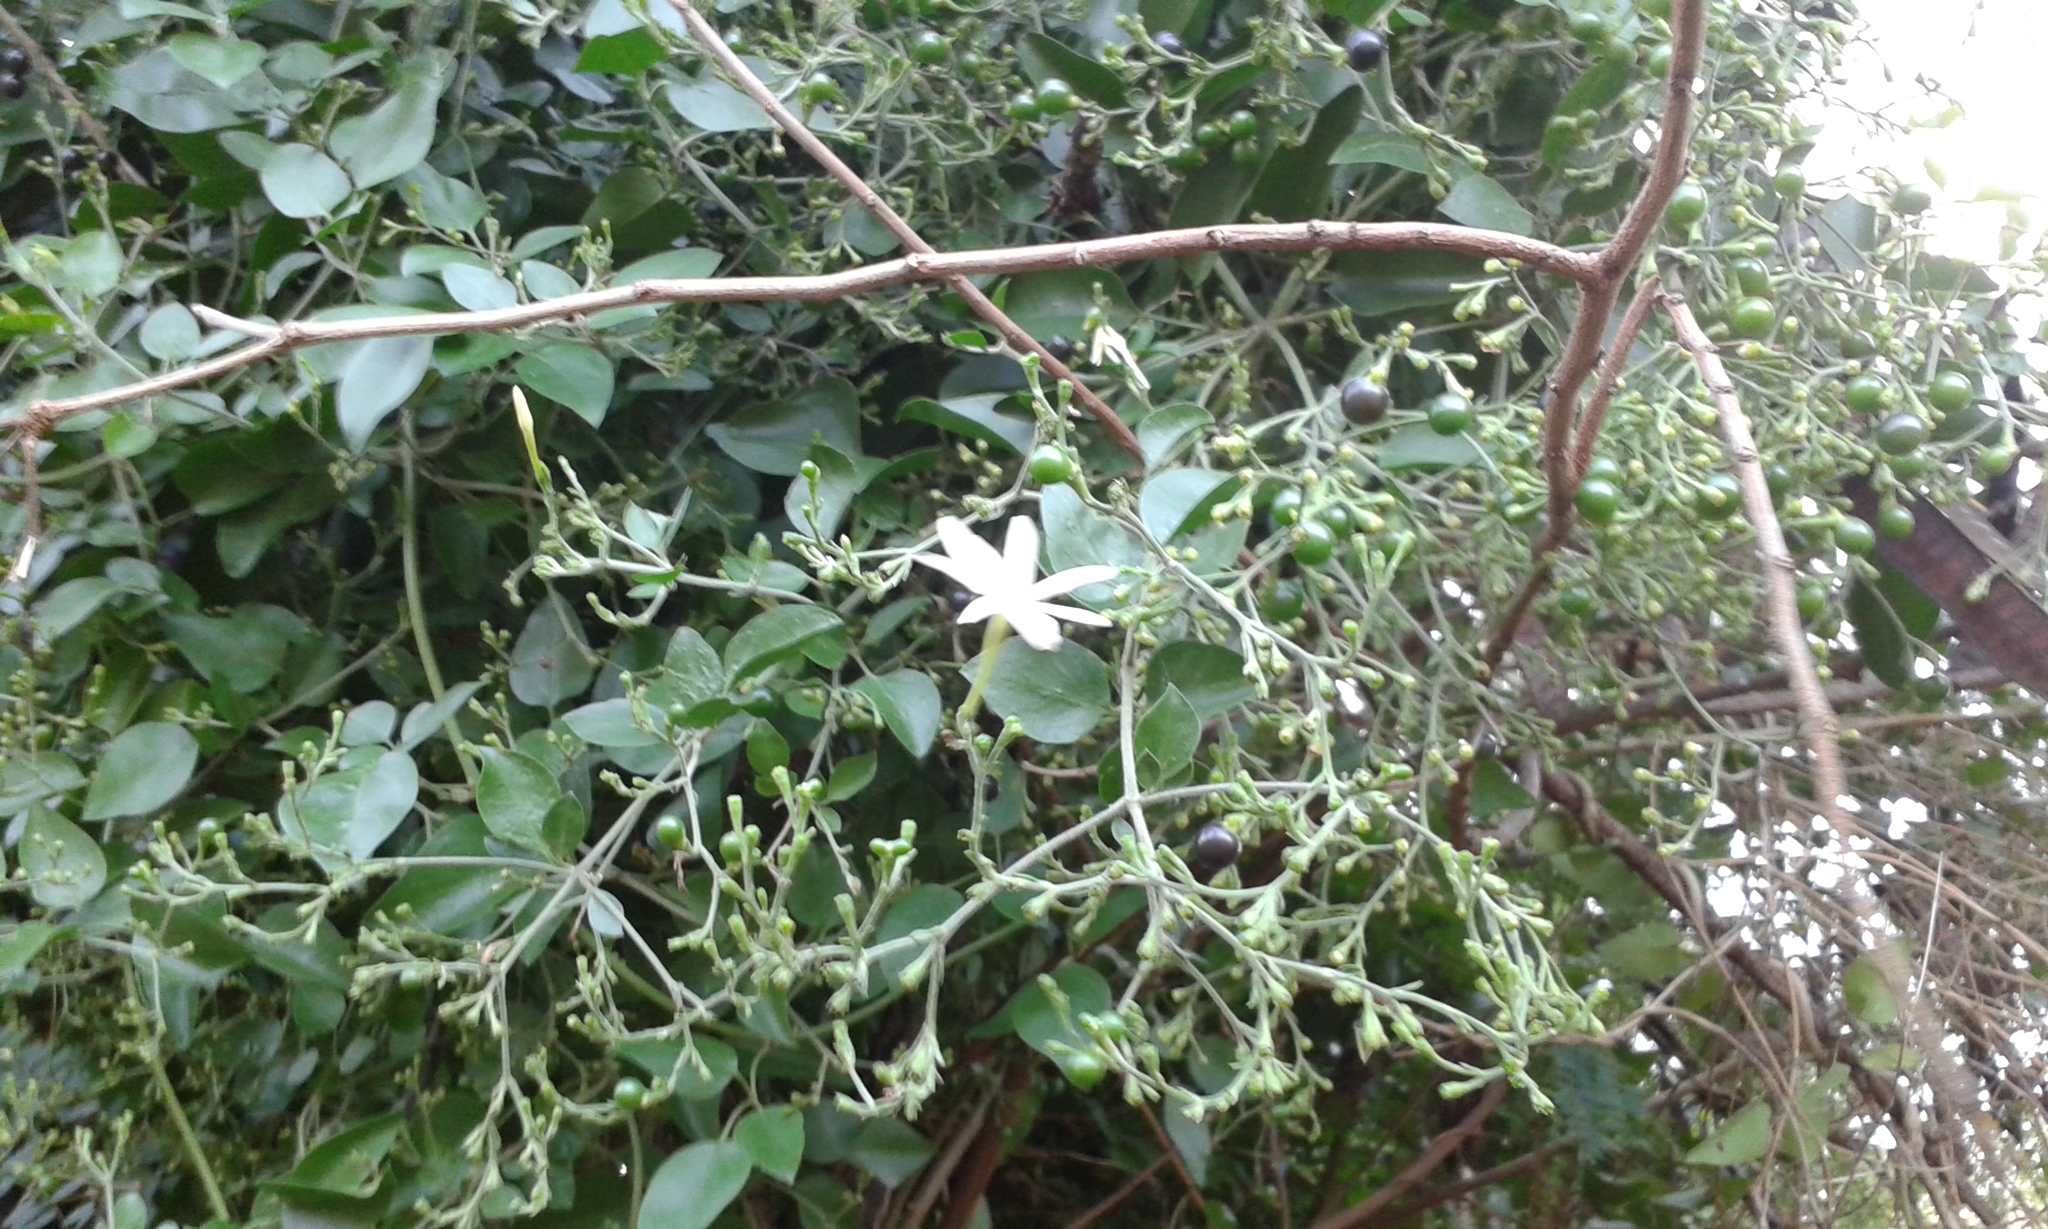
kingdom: Plantae
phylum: Tracheophyta
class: Magnoliopsida
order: Lamiales
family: Oleaceae
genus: Jasminum
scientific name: Jasminum fluminense
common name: Brazilian jasmine
